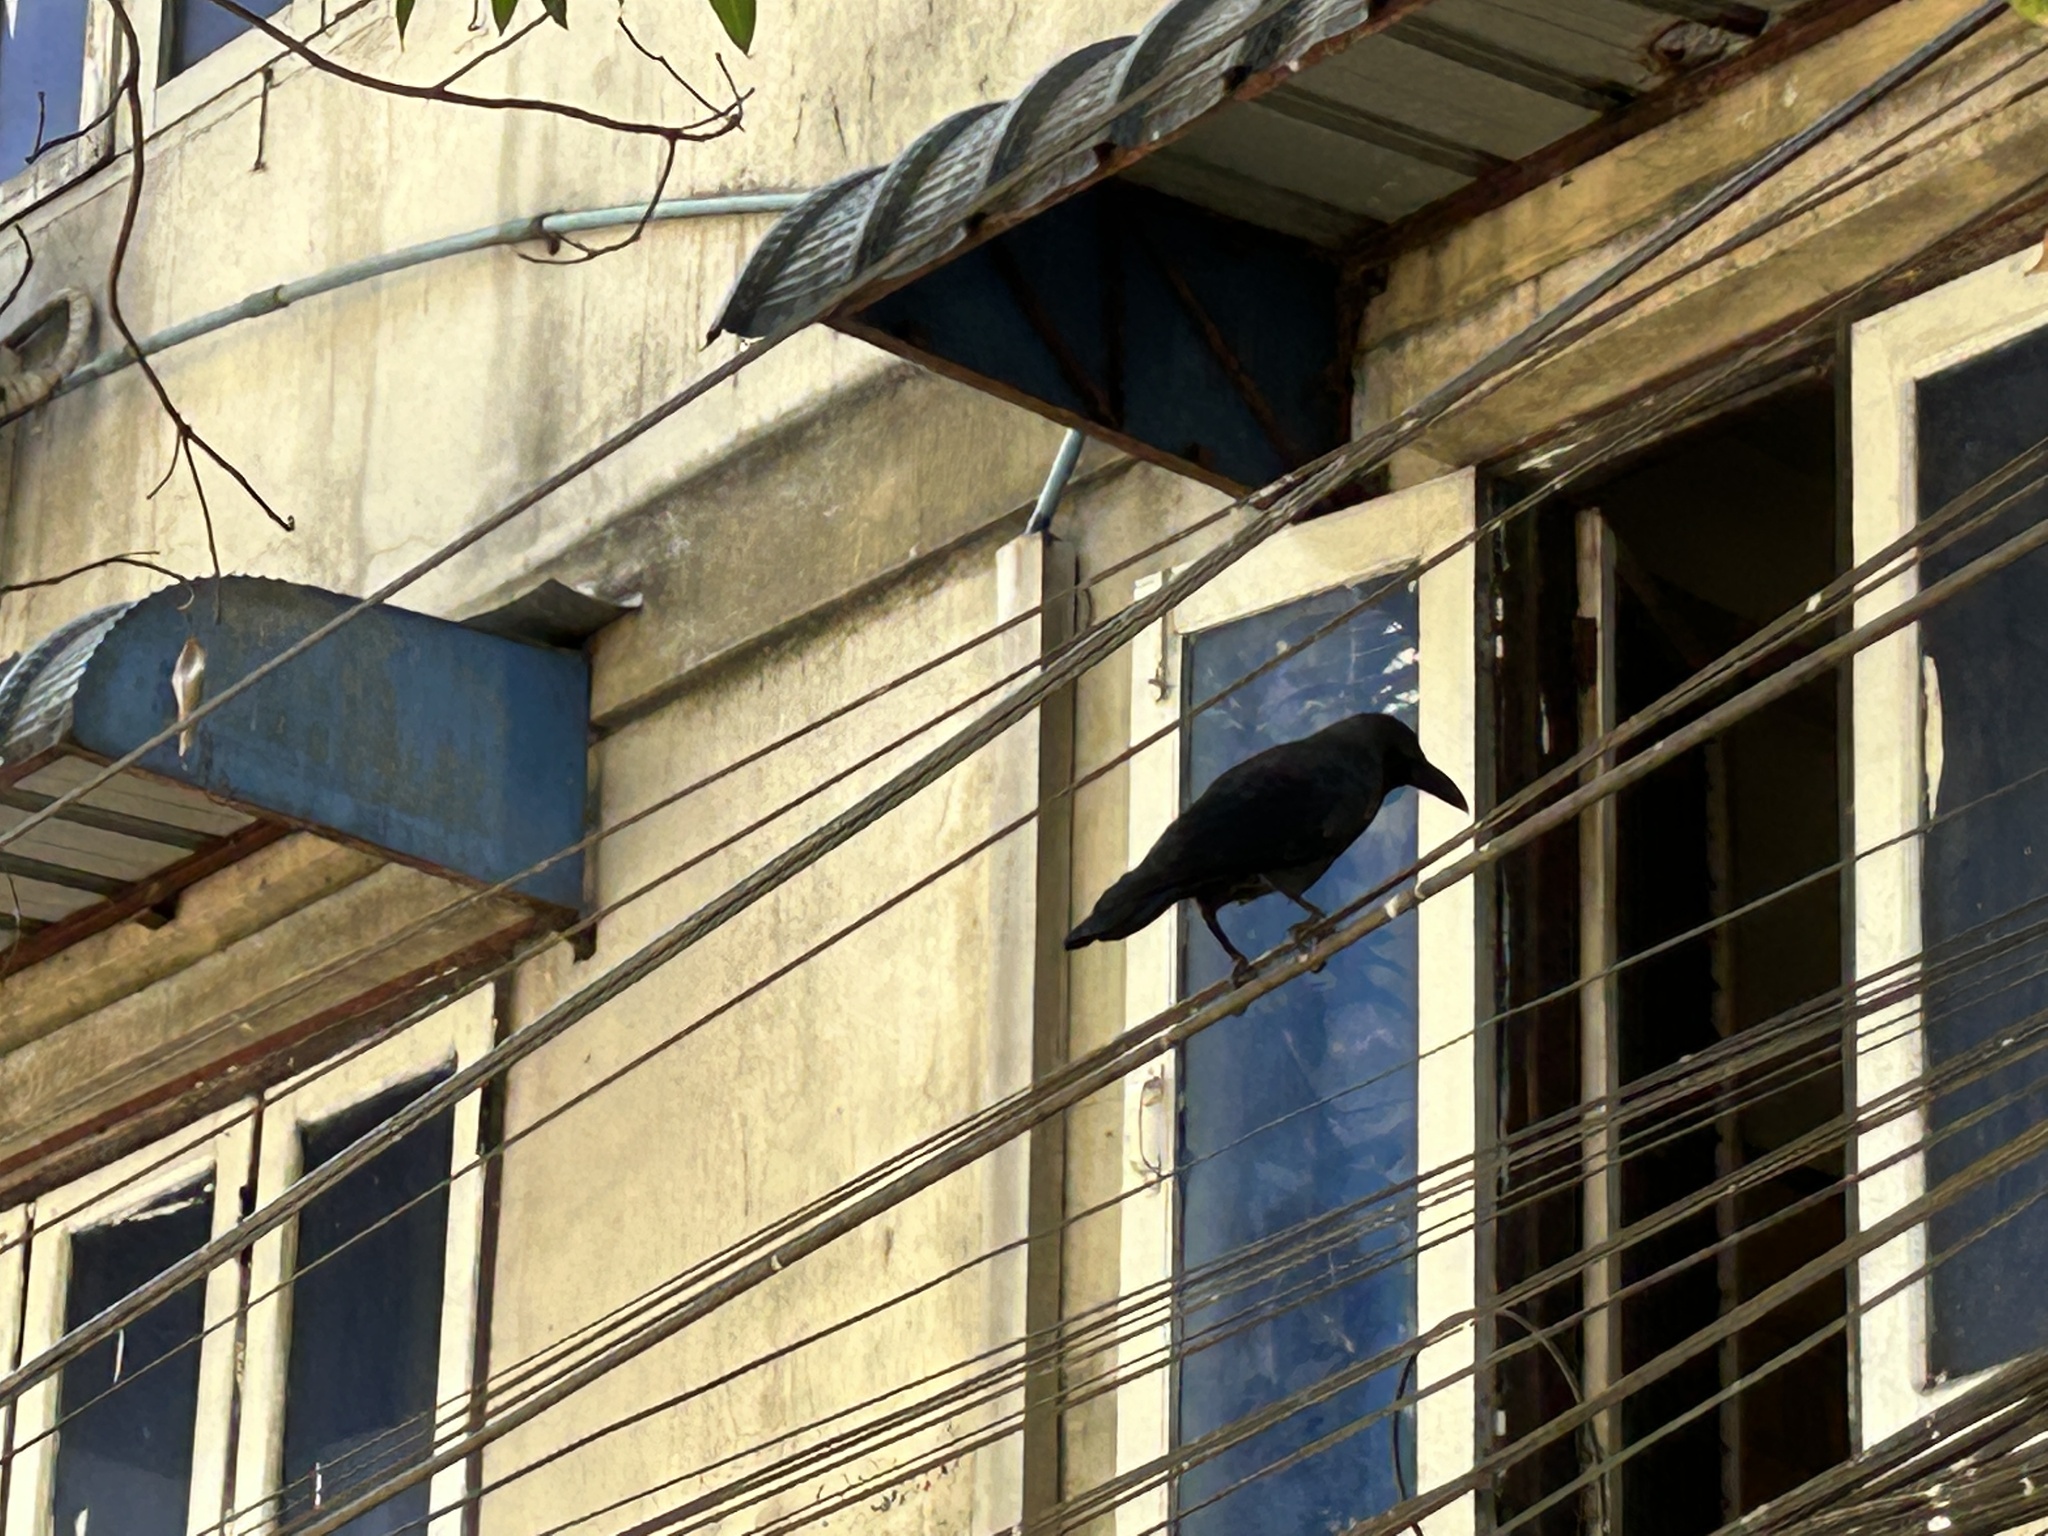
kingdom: Animalia
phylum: Chordata
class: Aves
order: Passeriformes
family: Corvidae
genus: Corvus
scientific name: Corvus splendens
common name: House crow
